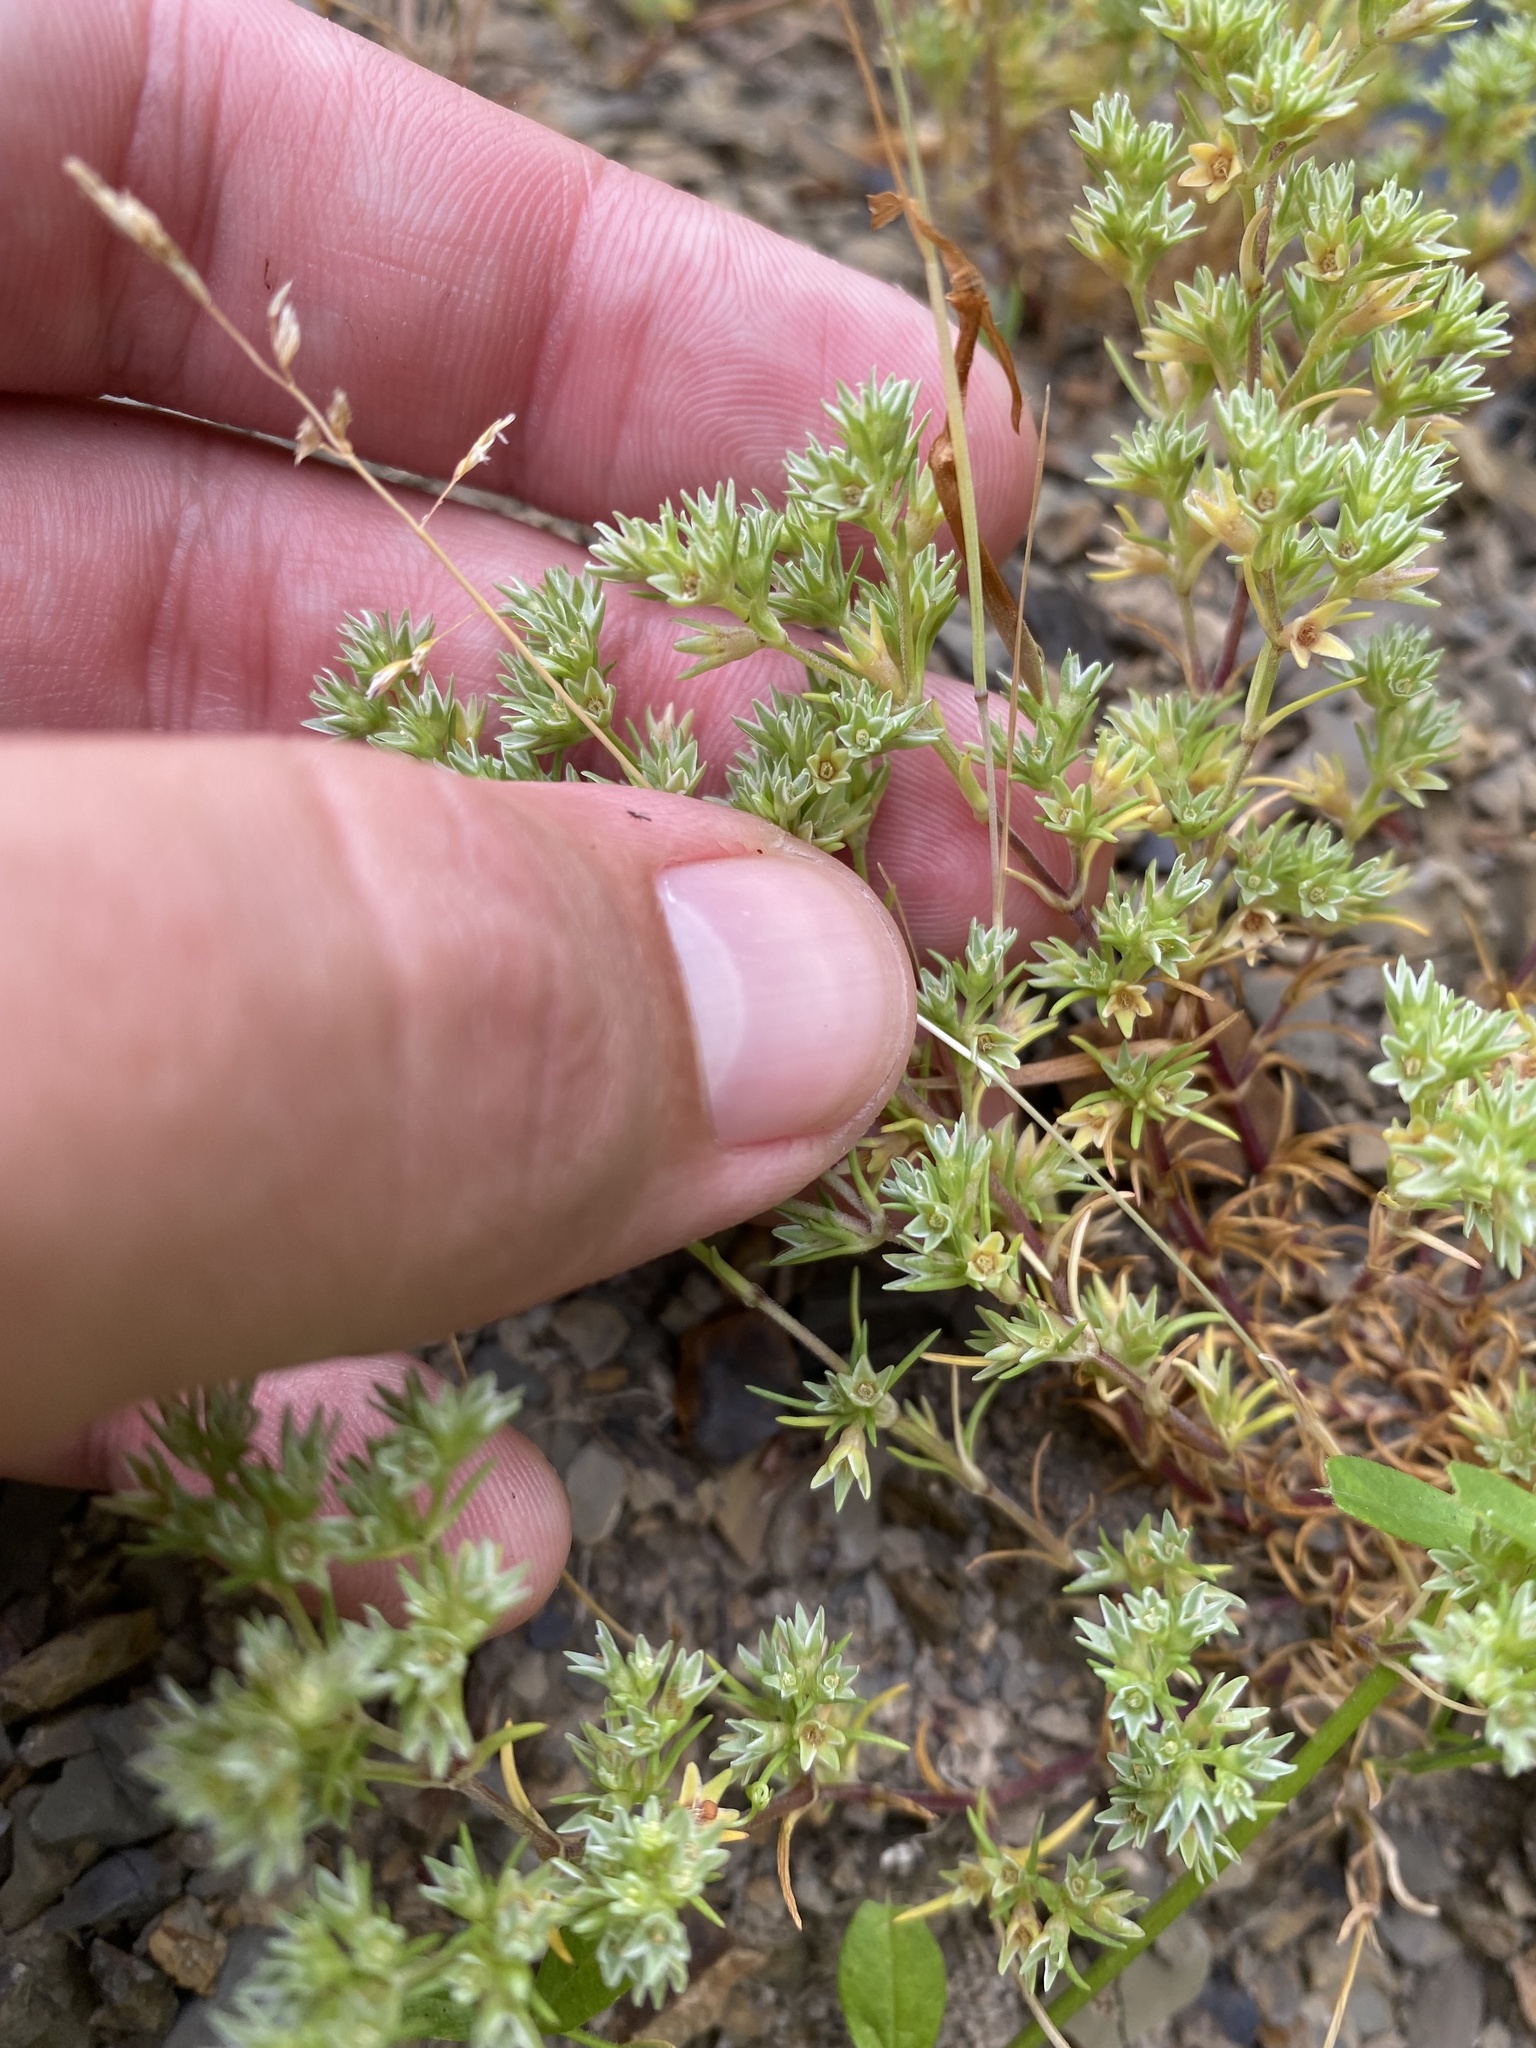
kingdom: Plantae
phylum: Tracheophyta
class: Magnoliopsida
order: Caryophyllales
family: Caryophyllaceae
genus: Scleranthus
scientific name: Scleranthus annuus
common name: Annual knawel
